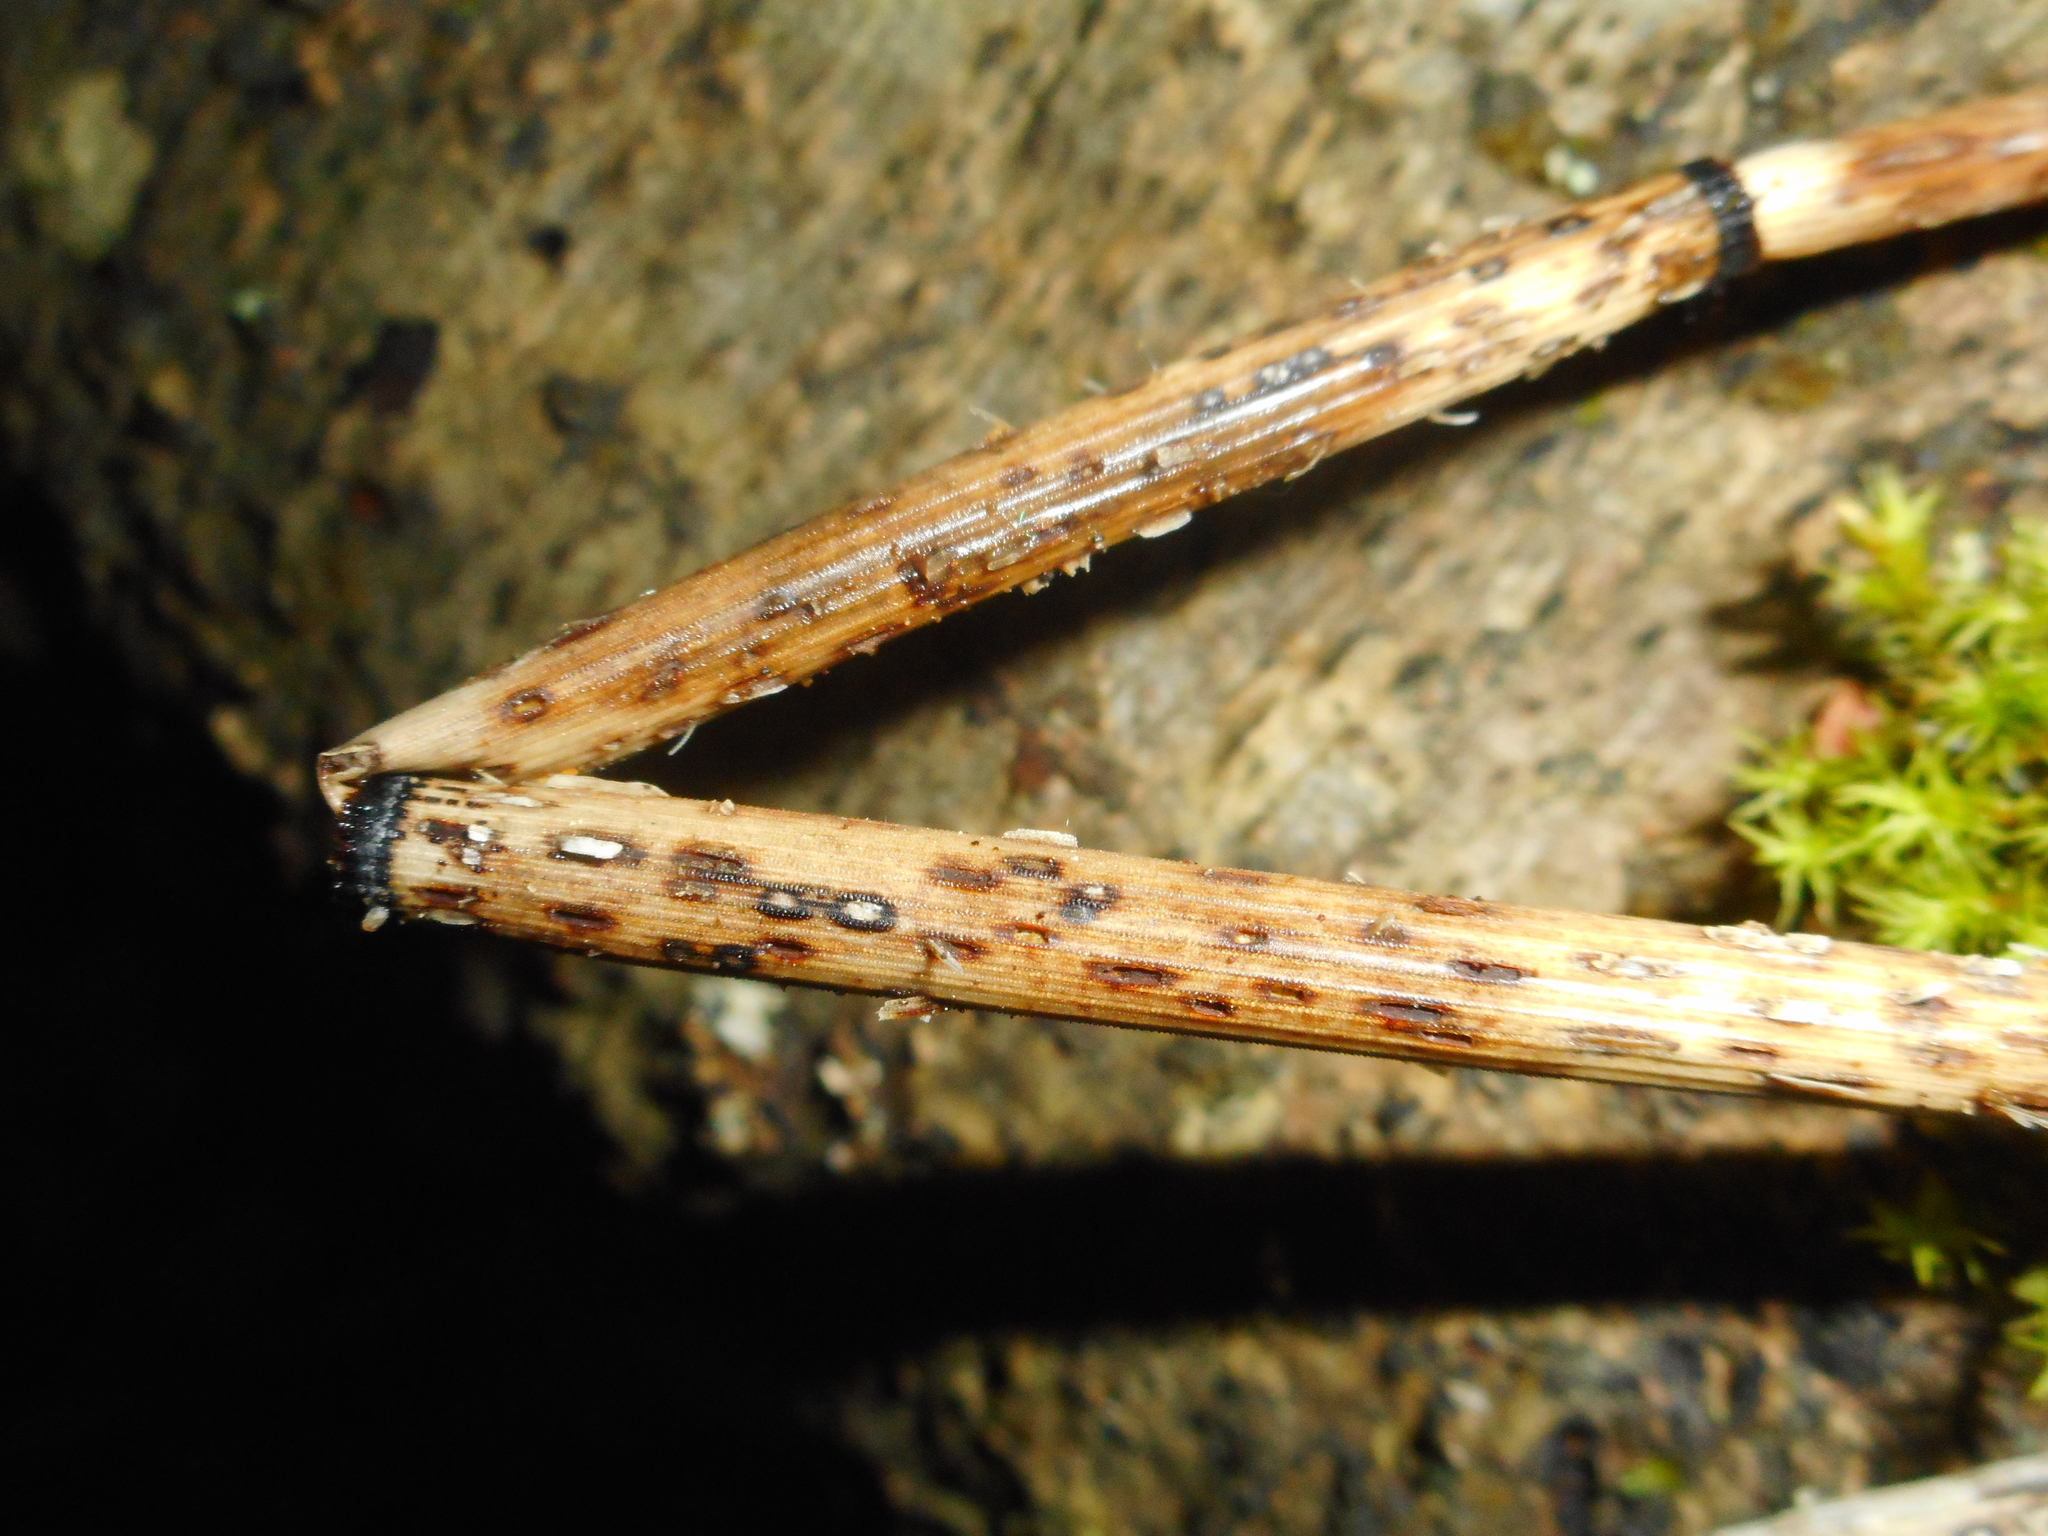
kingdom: Fungi
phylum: Ascomycota
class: Leotiomycetes
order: Helotiales
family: Helotiaceae
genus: Stamnaria
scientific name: Stamnaria
